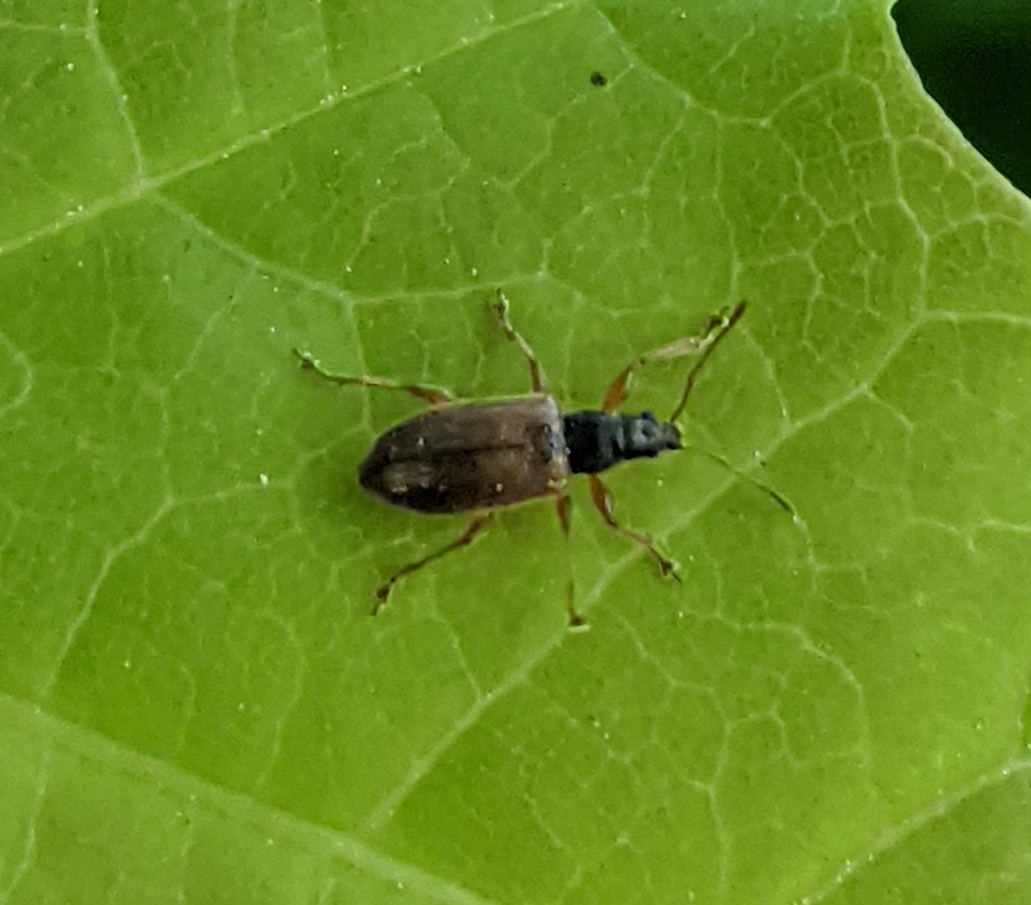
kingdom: Animalia
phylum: Arthropoda
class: Insecta
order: Coleoptera
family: Curculionidae
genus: Phyllobius
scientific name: Phyllobius oblongus
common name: Brown leaf weevil
